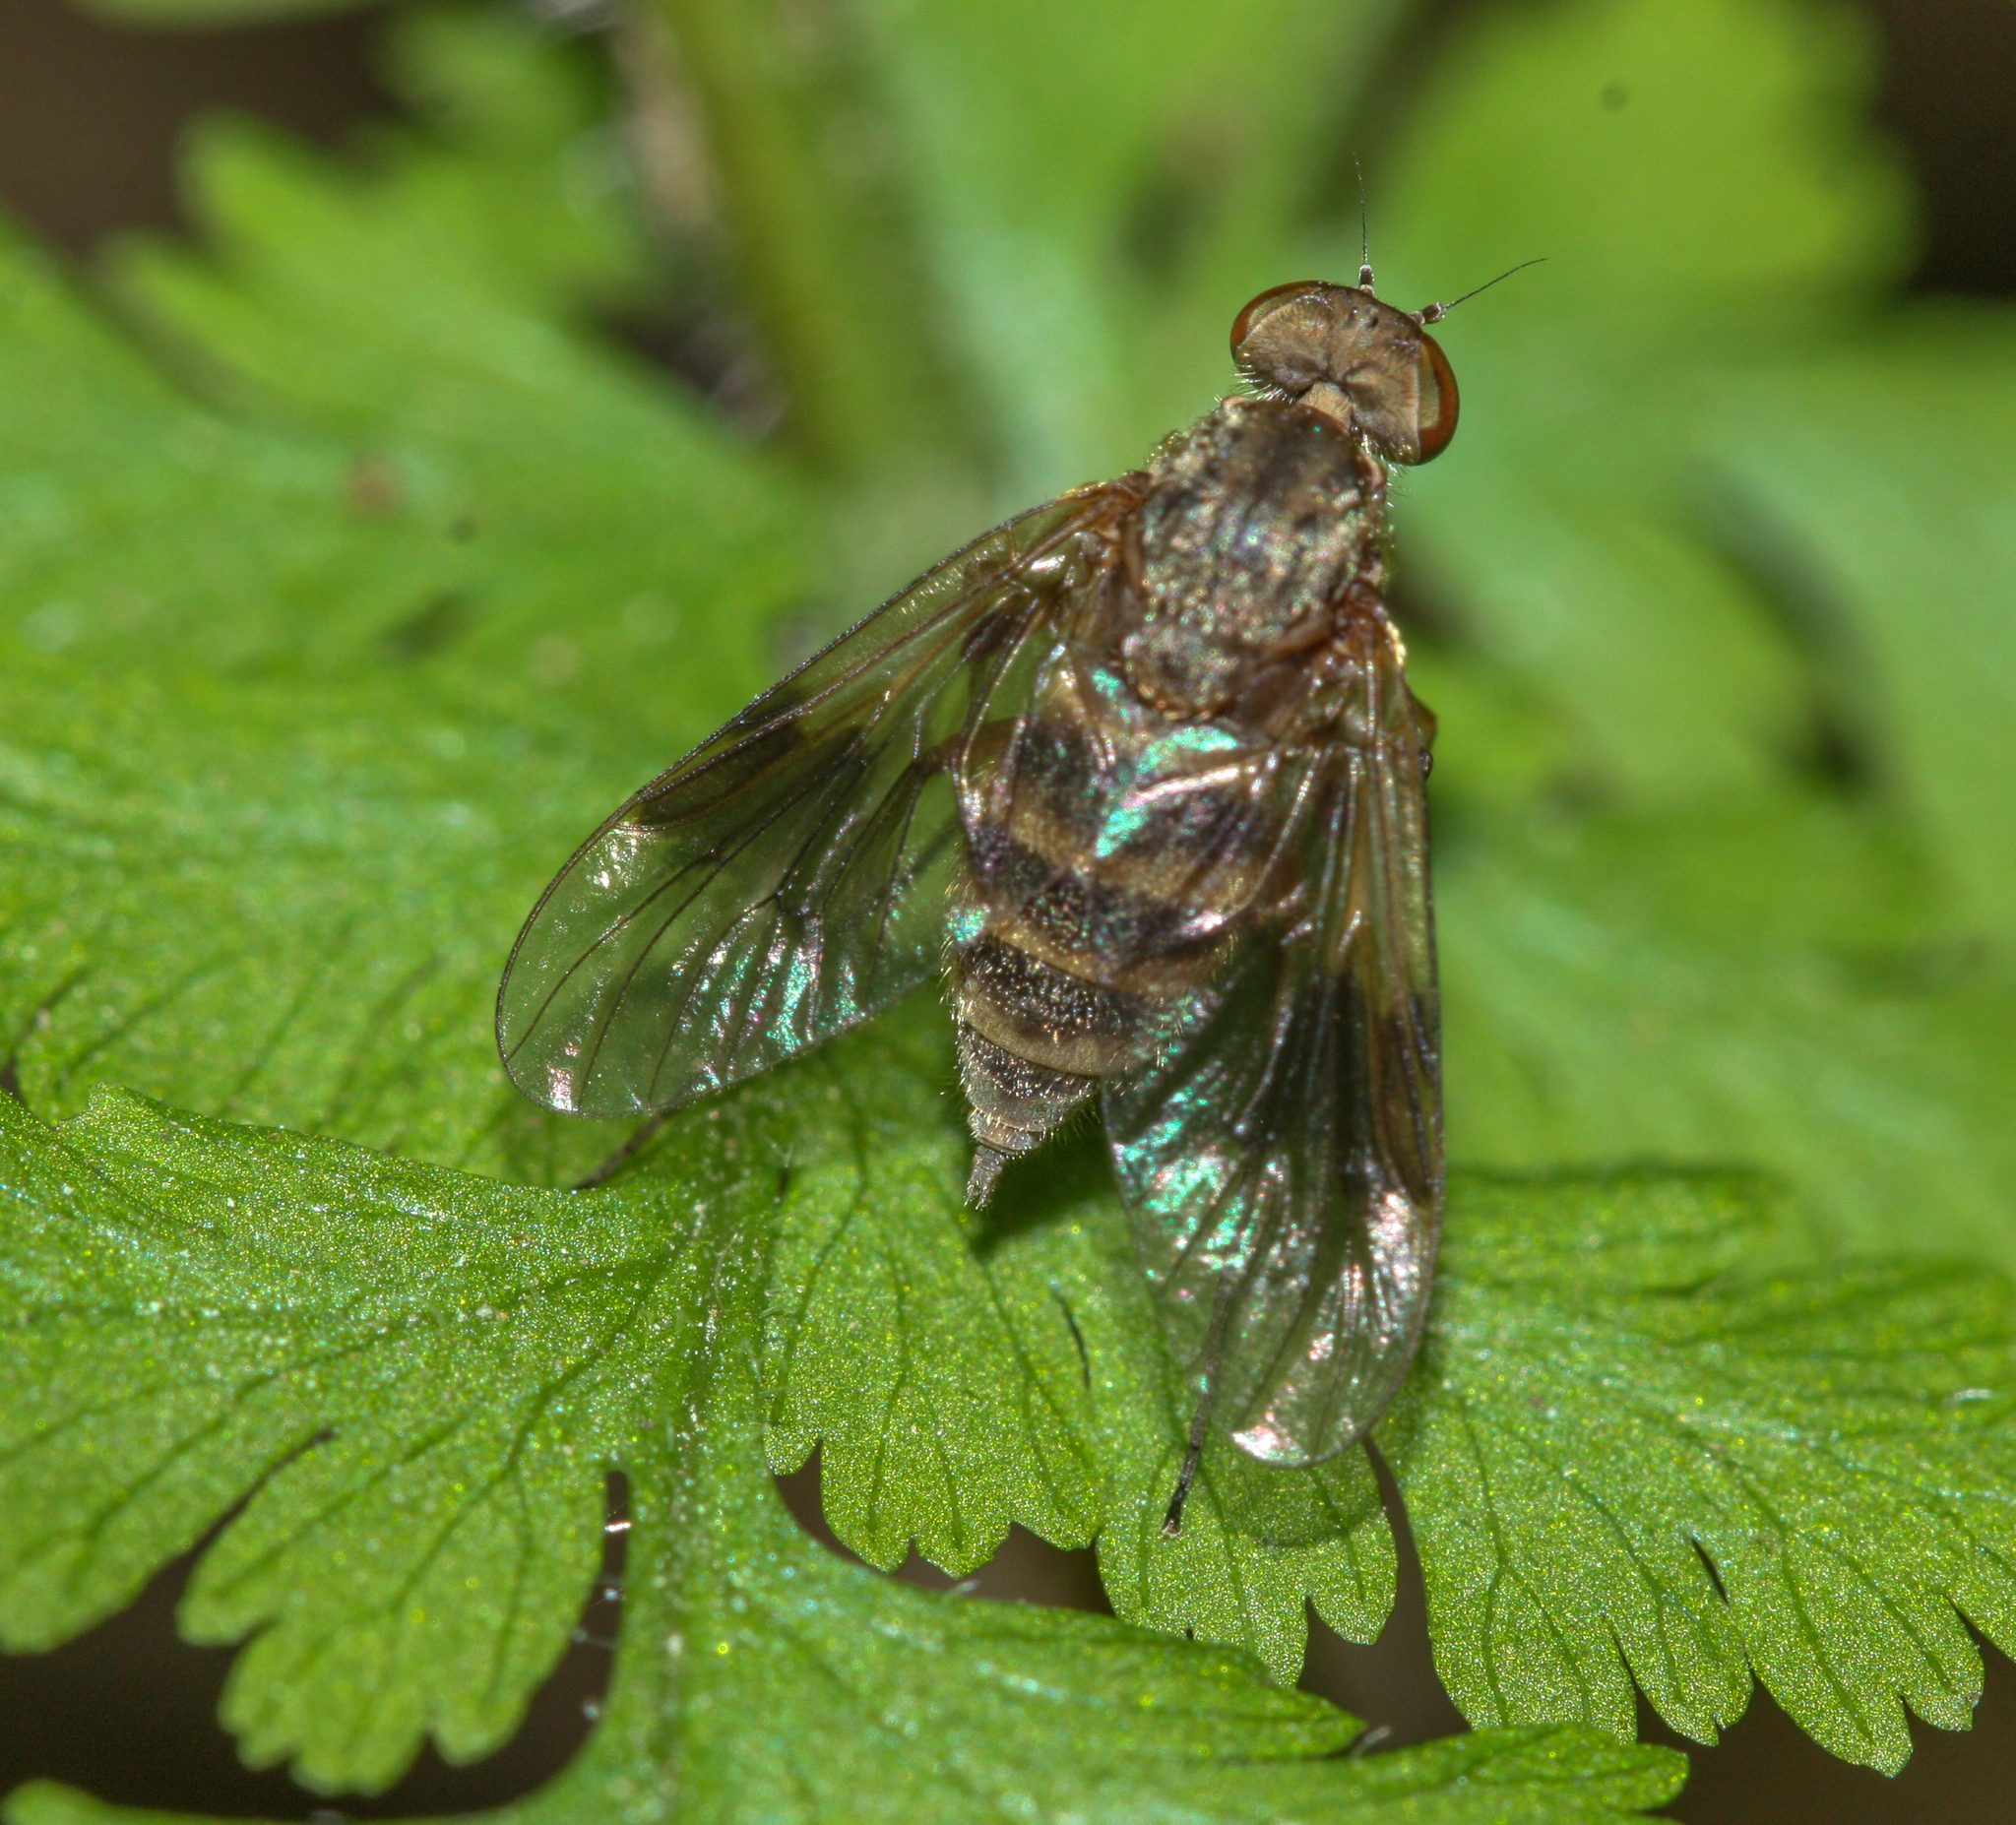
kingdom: Animalia
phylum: Arthropoda
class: Insecta
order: Diptera
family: Rhagionidae
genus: Chrysopilus
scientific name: Chrysopilus quadratus
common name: Quadrate snipe fly
